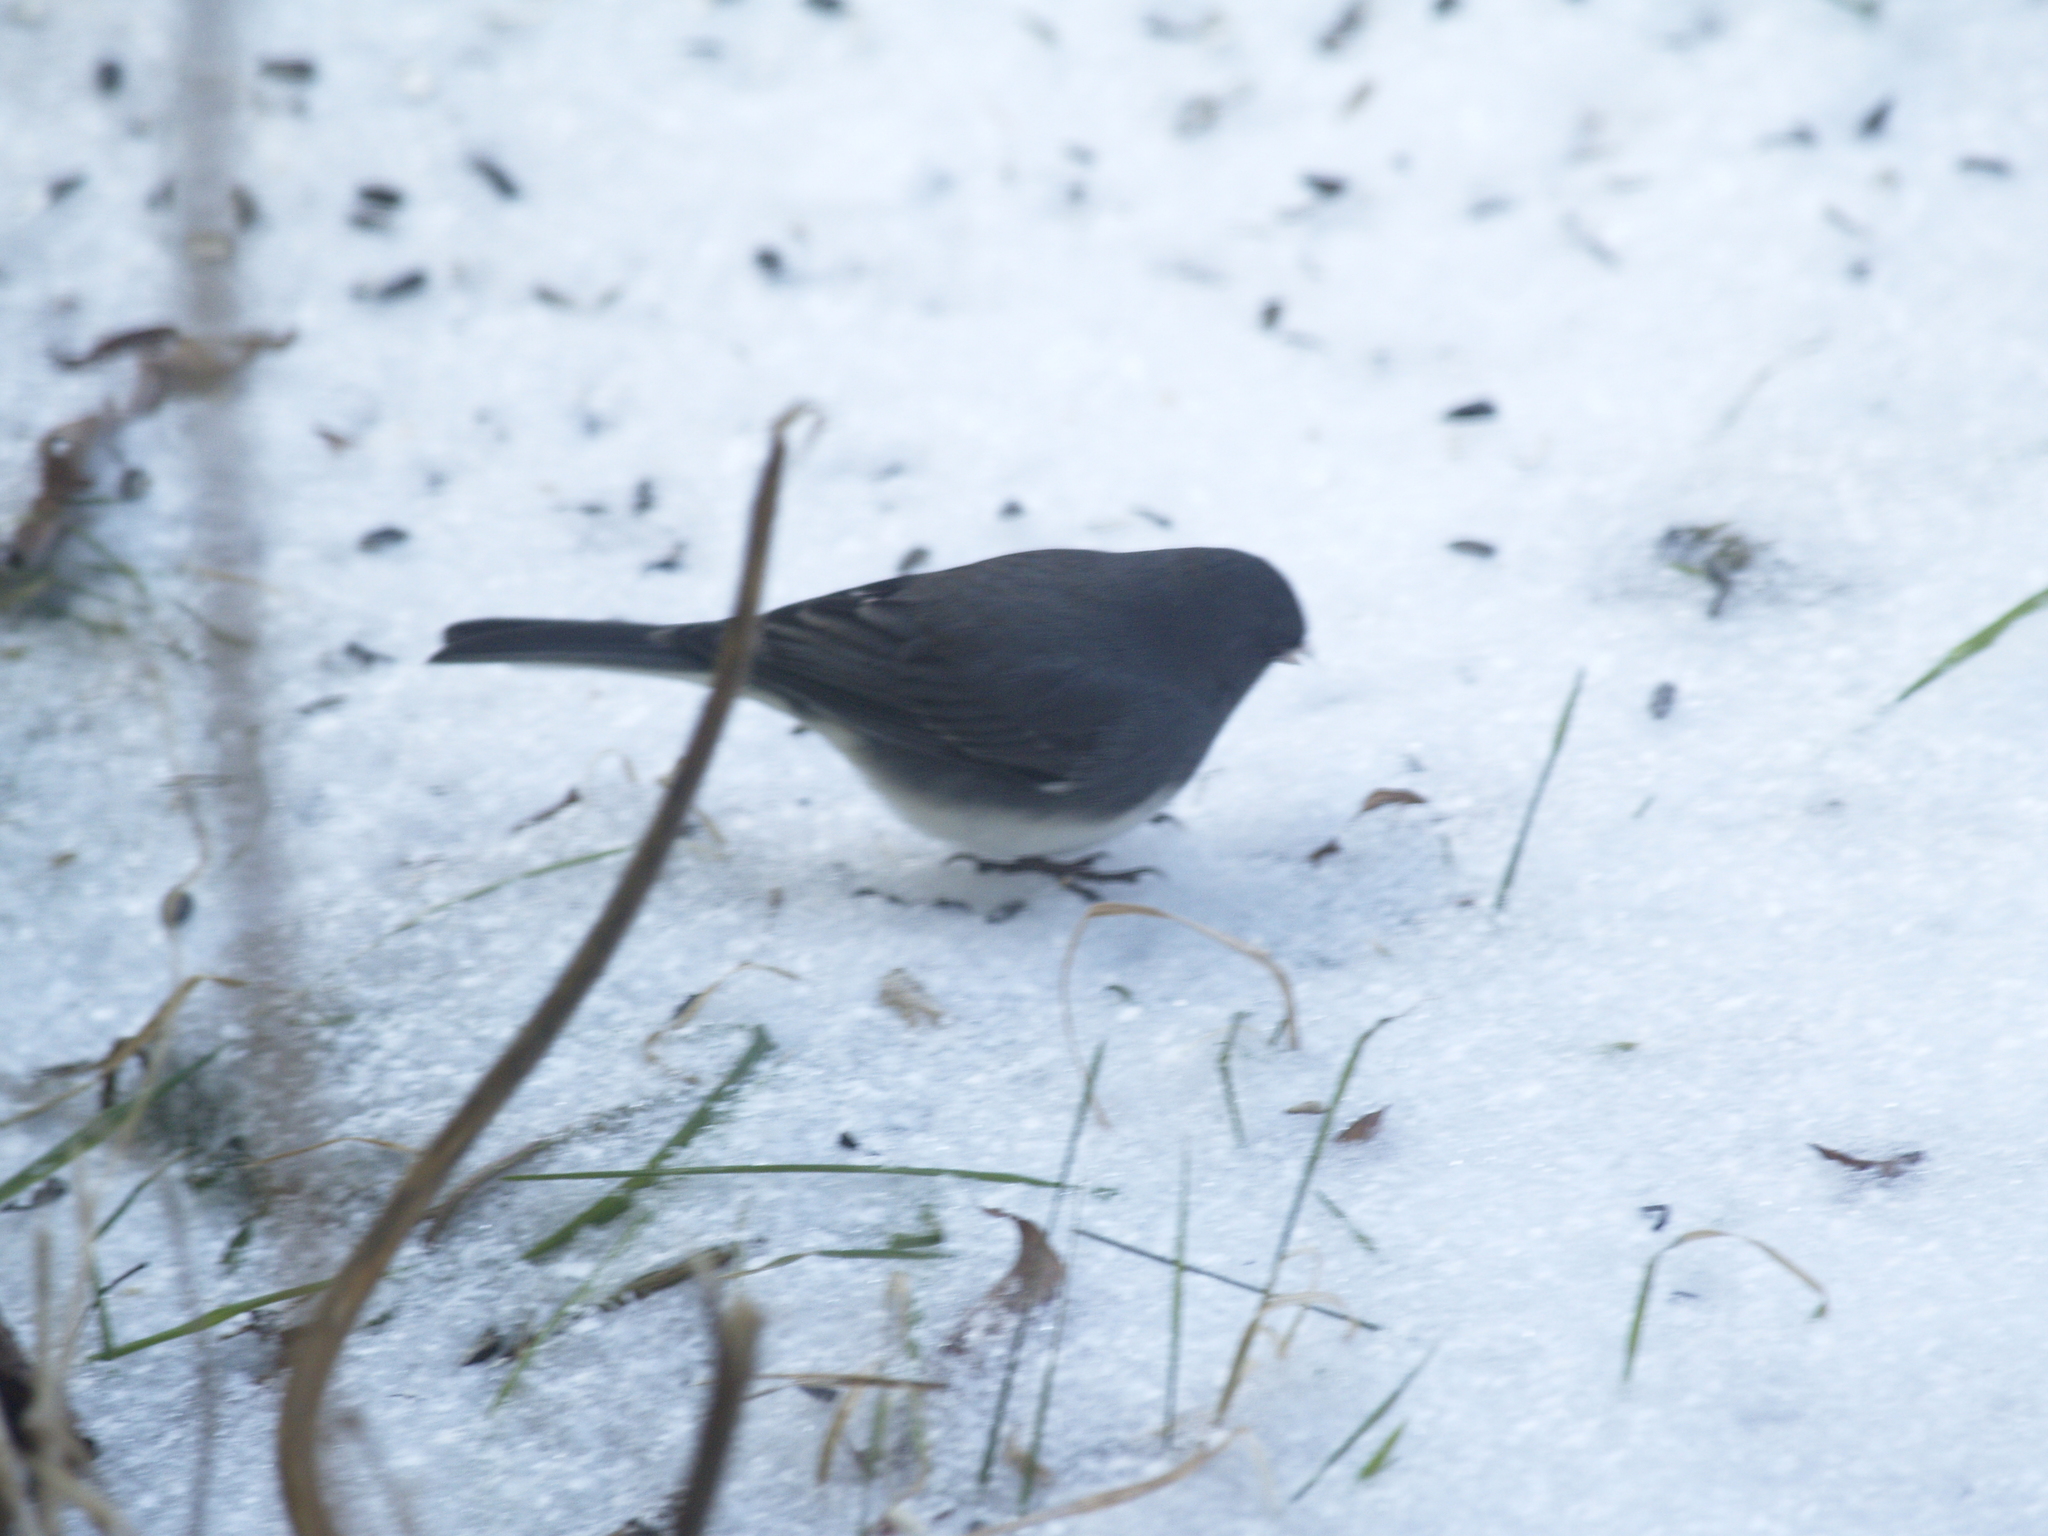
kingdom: Animalia
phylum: Chordata
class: Aves
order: Passeriformes
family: Passerellidae
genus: Junco
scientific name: Junco hyemalis
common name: Dark-eyed junco
